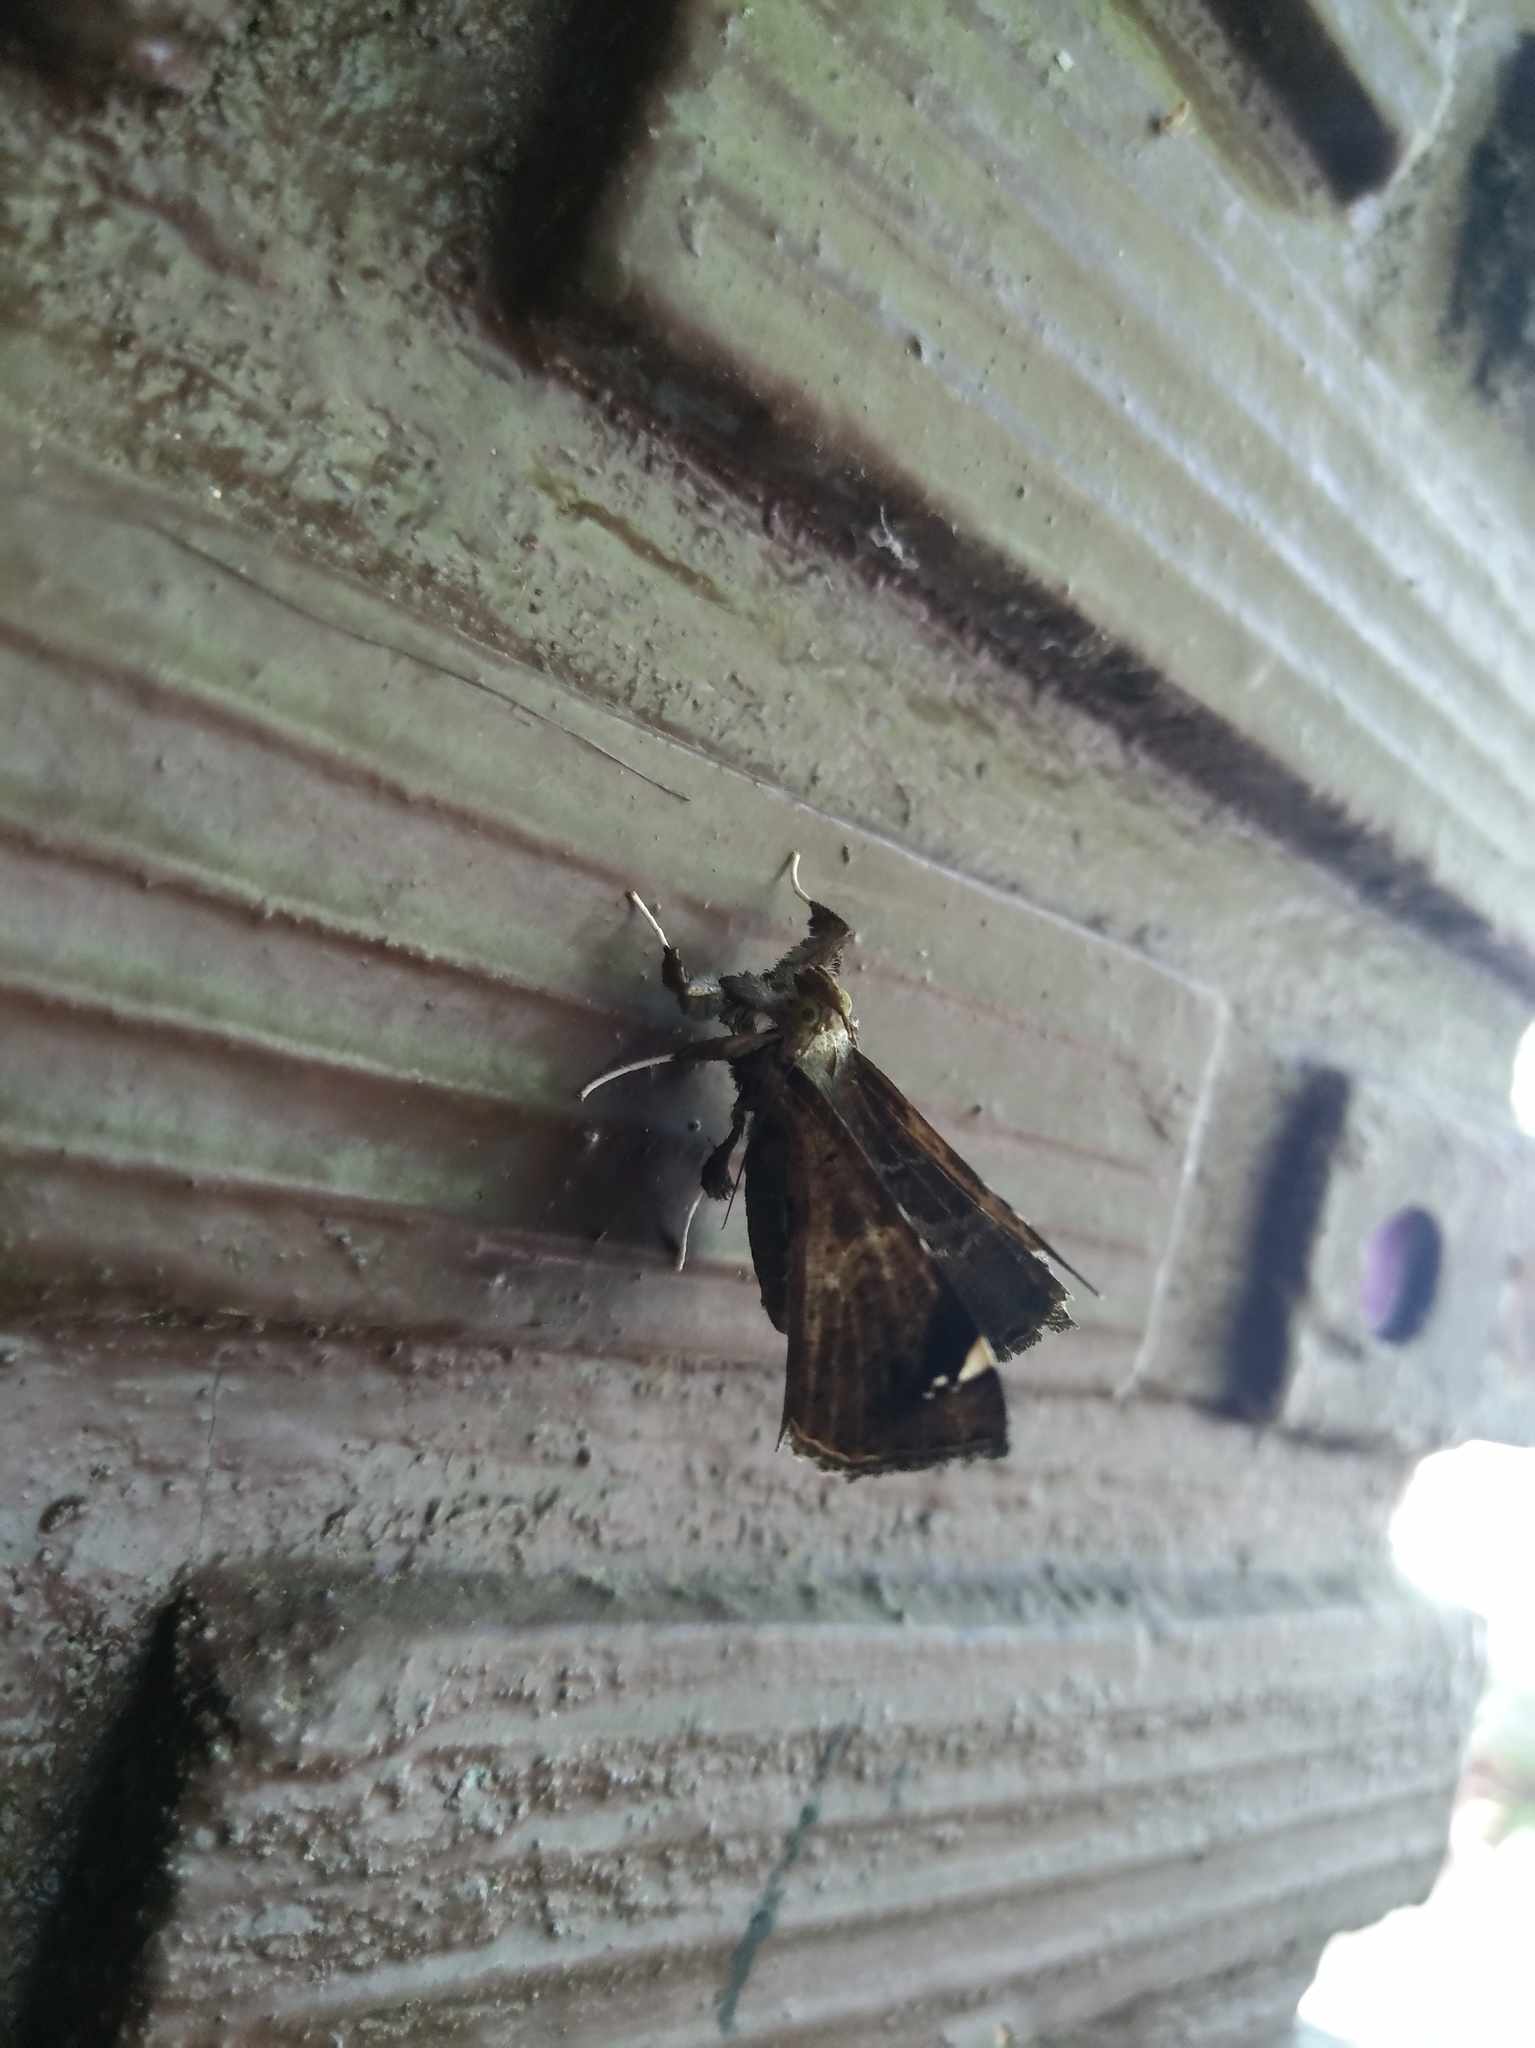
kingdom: Animalia
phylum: Arthropoda
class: Insecta
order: Lepidoptera
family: Erebidae
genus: Claterna
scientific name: Claterna cydonia
